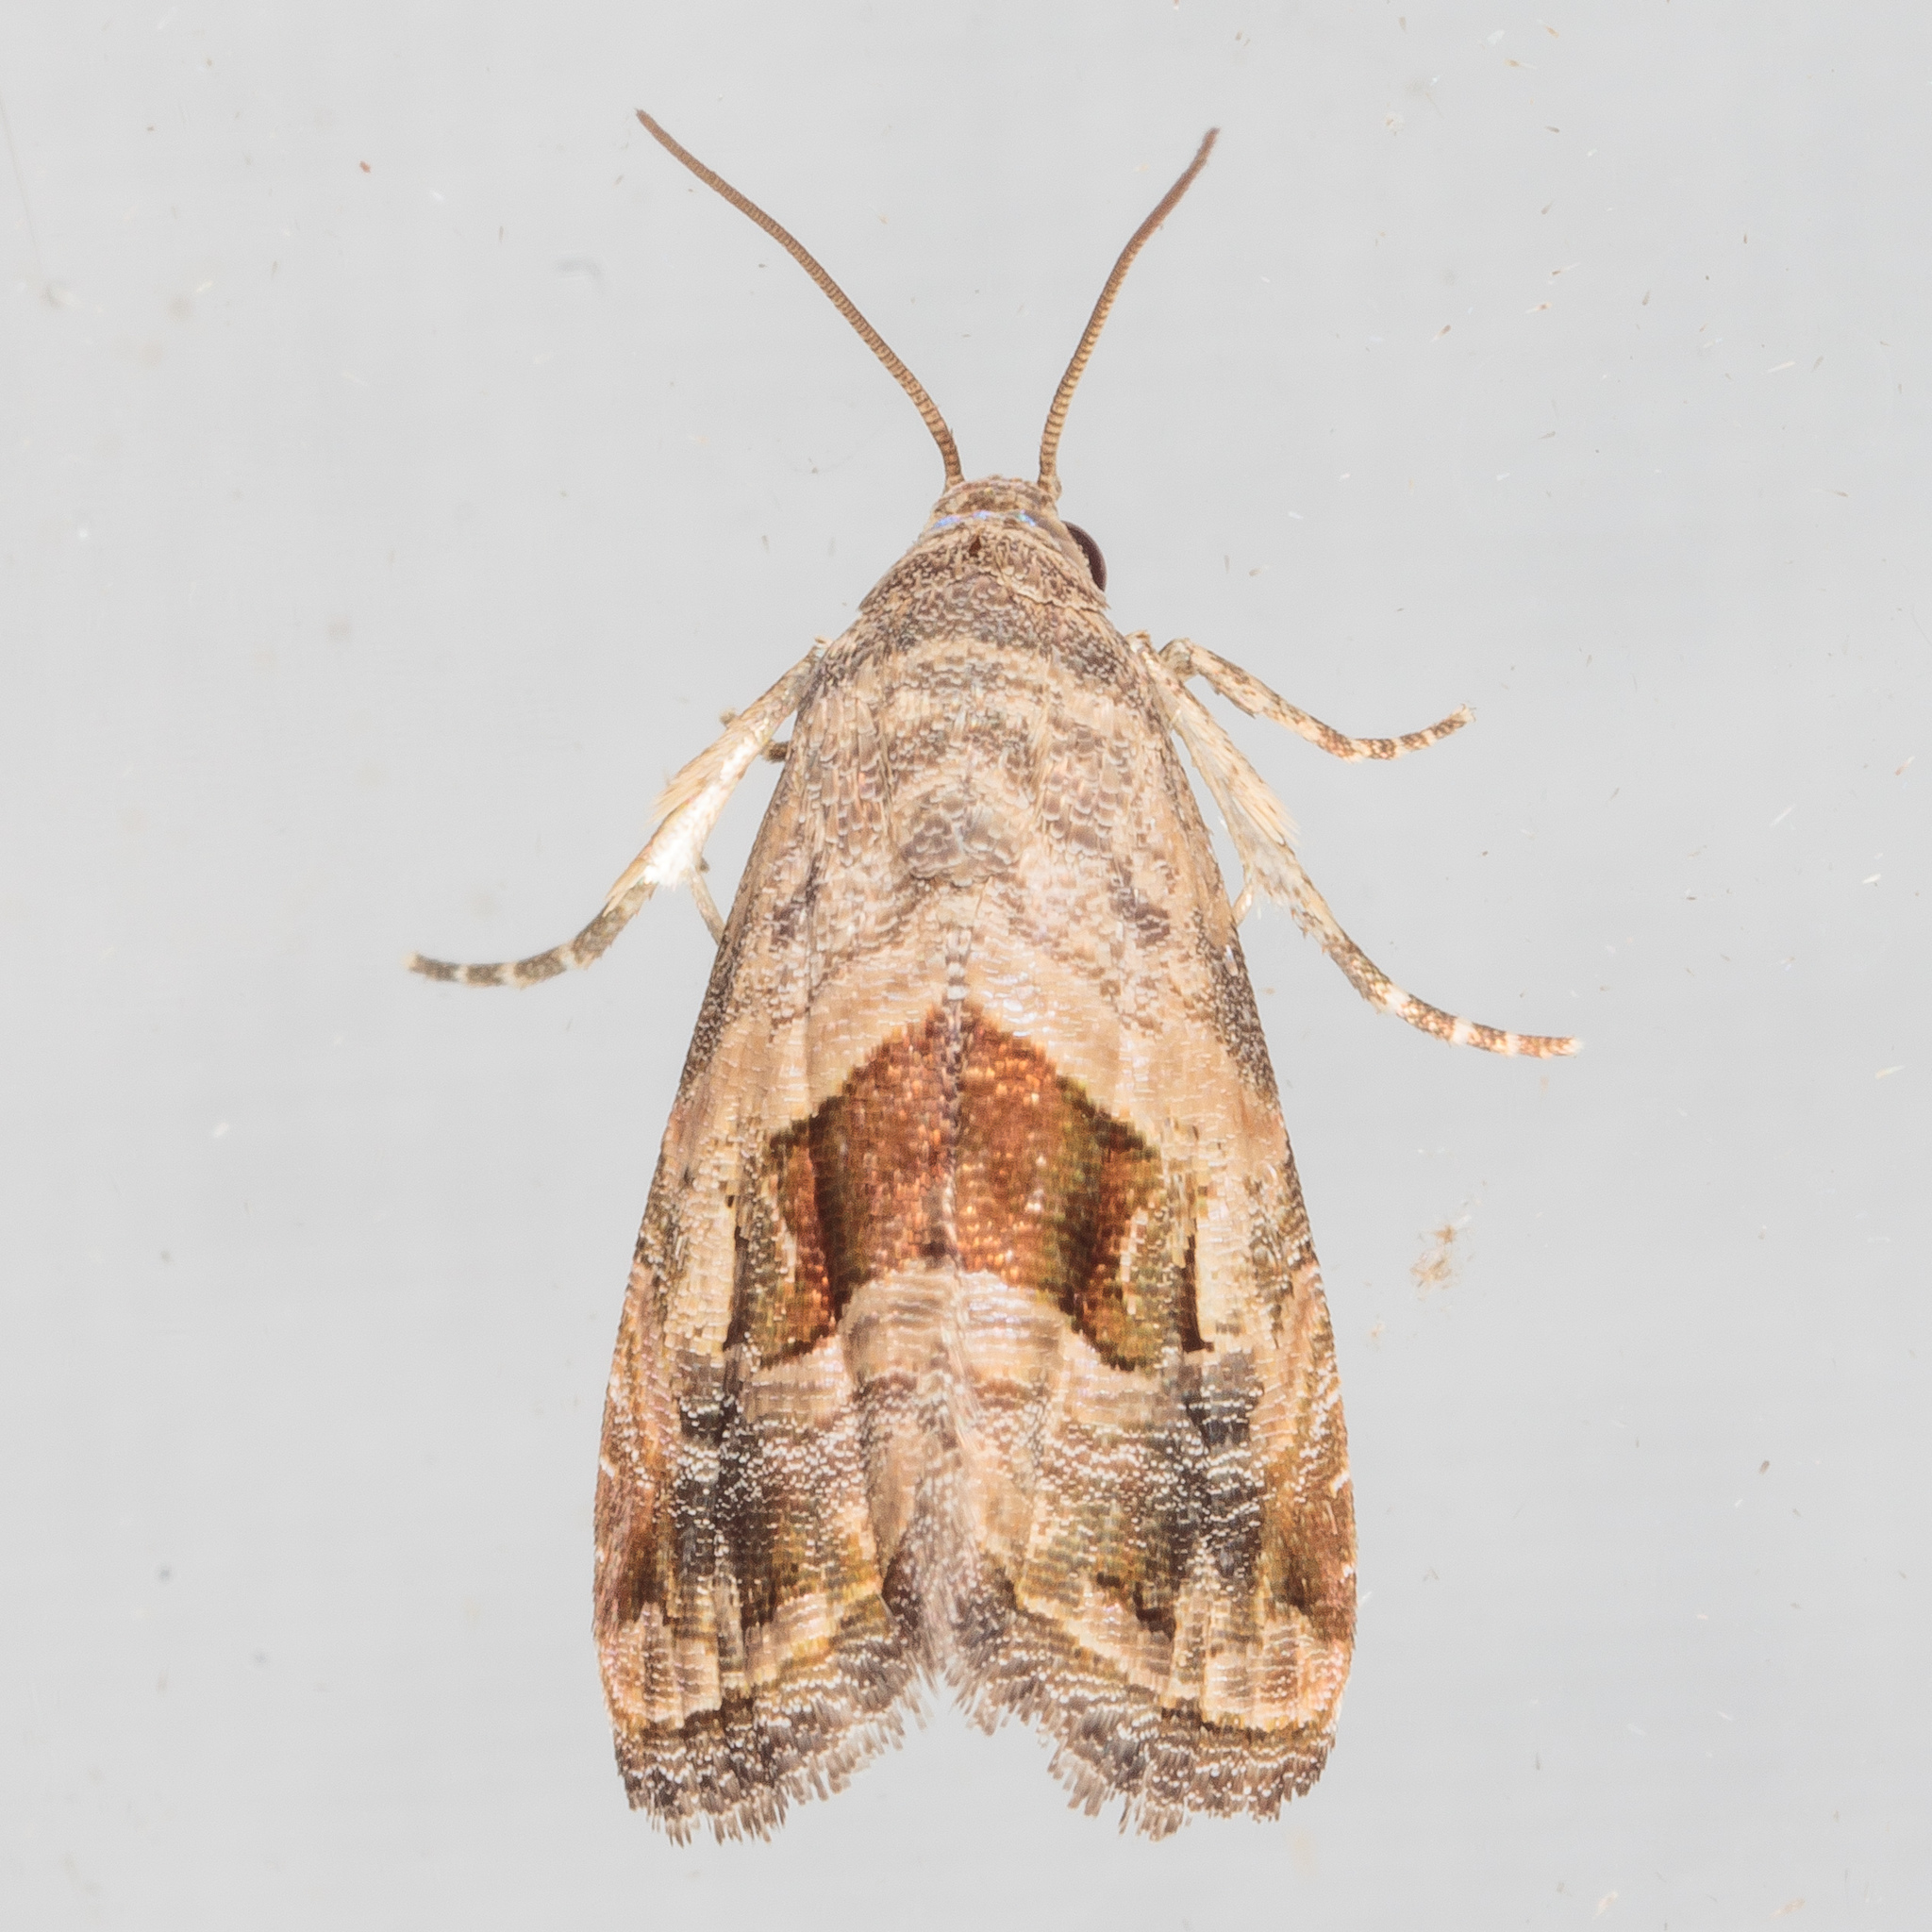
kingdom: Animalia
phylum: Arthropoda
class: Insecta
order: Lepidoptera
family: Noctuidae
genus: Tripudia
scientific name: Tripudia quadrifera
